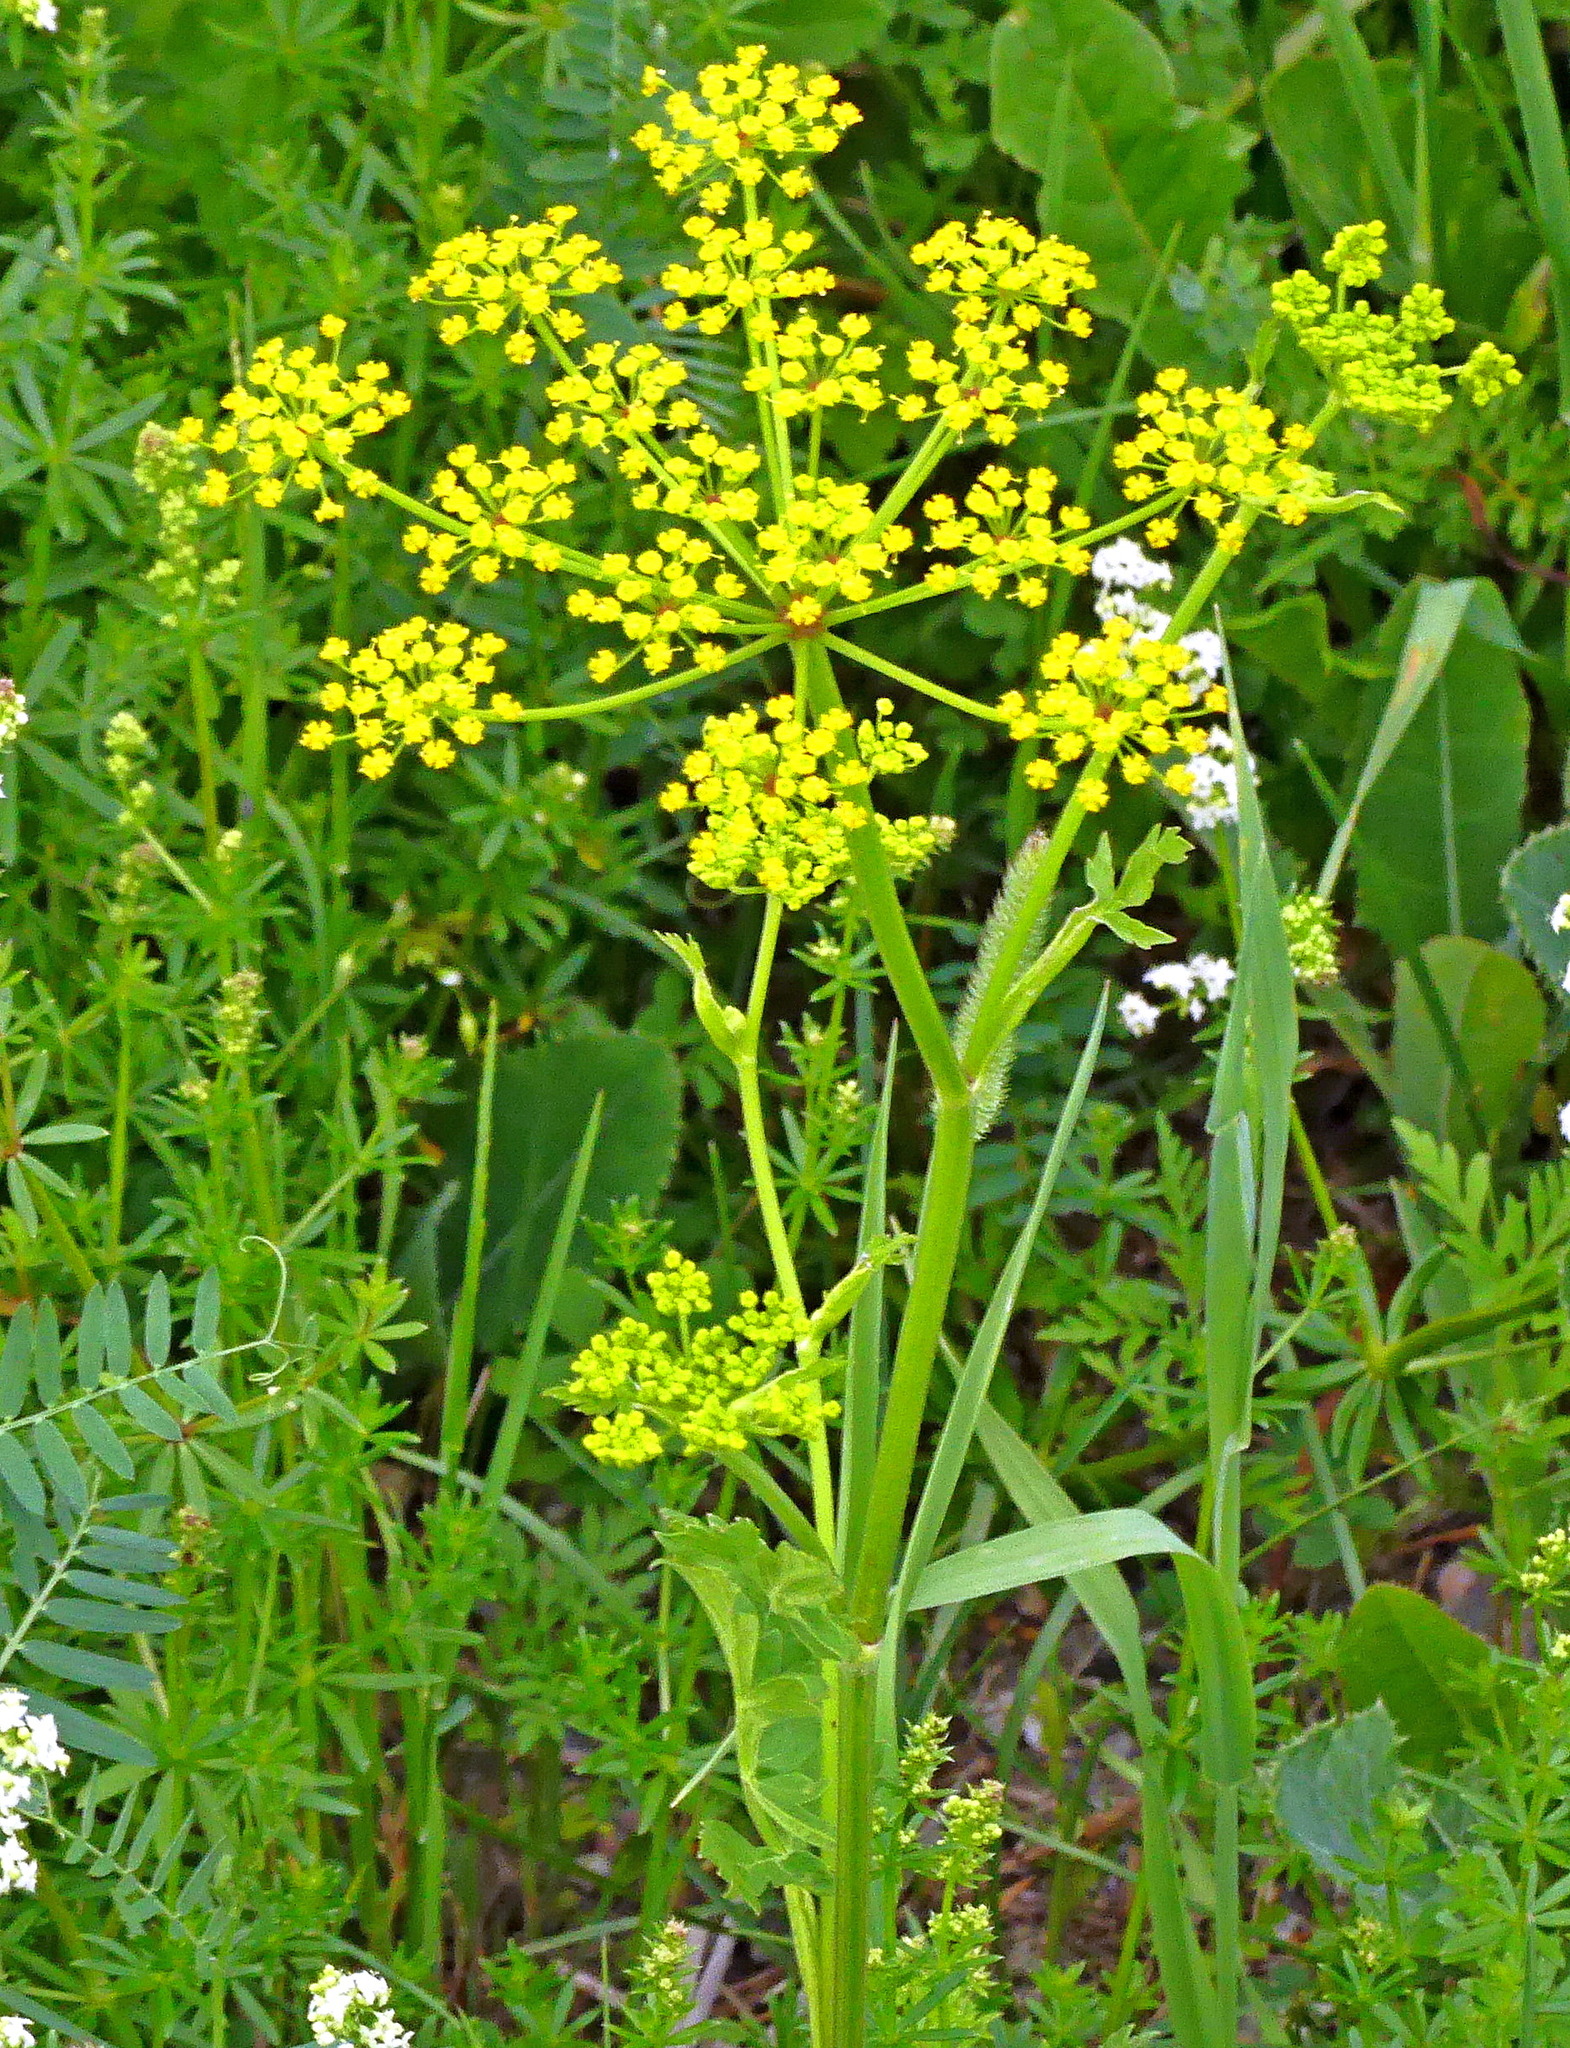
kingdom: Plantae
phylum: Tracheophyta
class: Magnoliopsida
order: Apiales
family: Apiaceae
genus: Pastinaca
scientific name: Pastinaca sativa
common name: Wild parsnip
